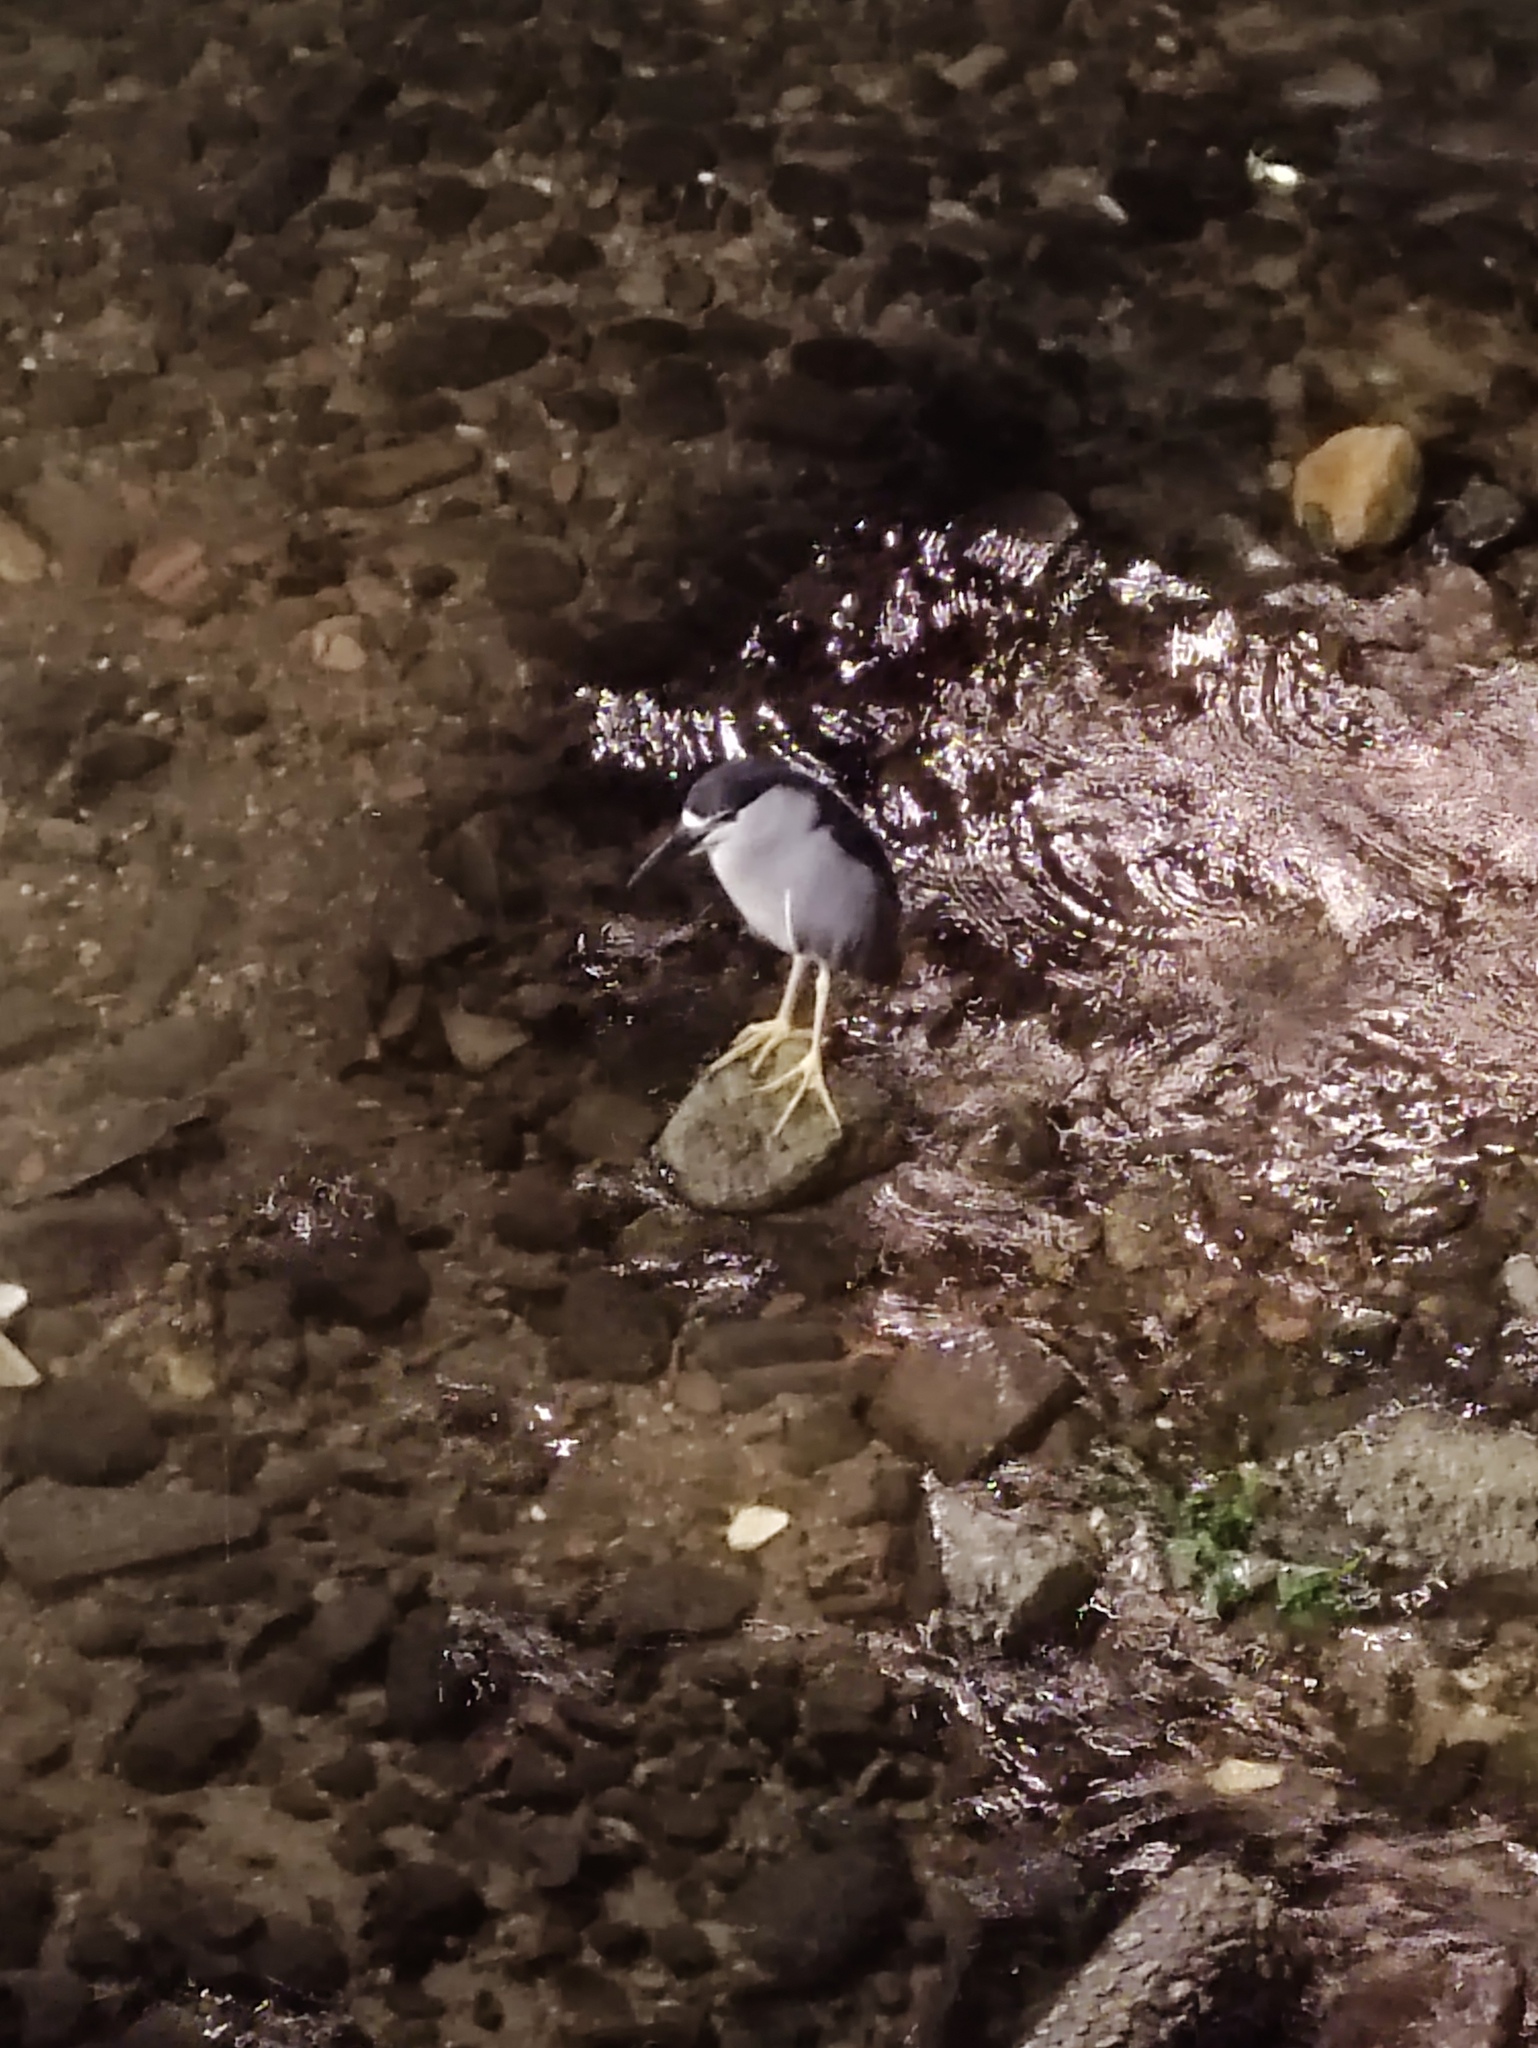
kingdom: Animalia
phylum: Chordata
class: Aves
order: Pelecaniformes
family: Ardeidae
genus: Nycticorax
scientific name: Nycticorax nycticorax
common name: Black-crowned night heron
